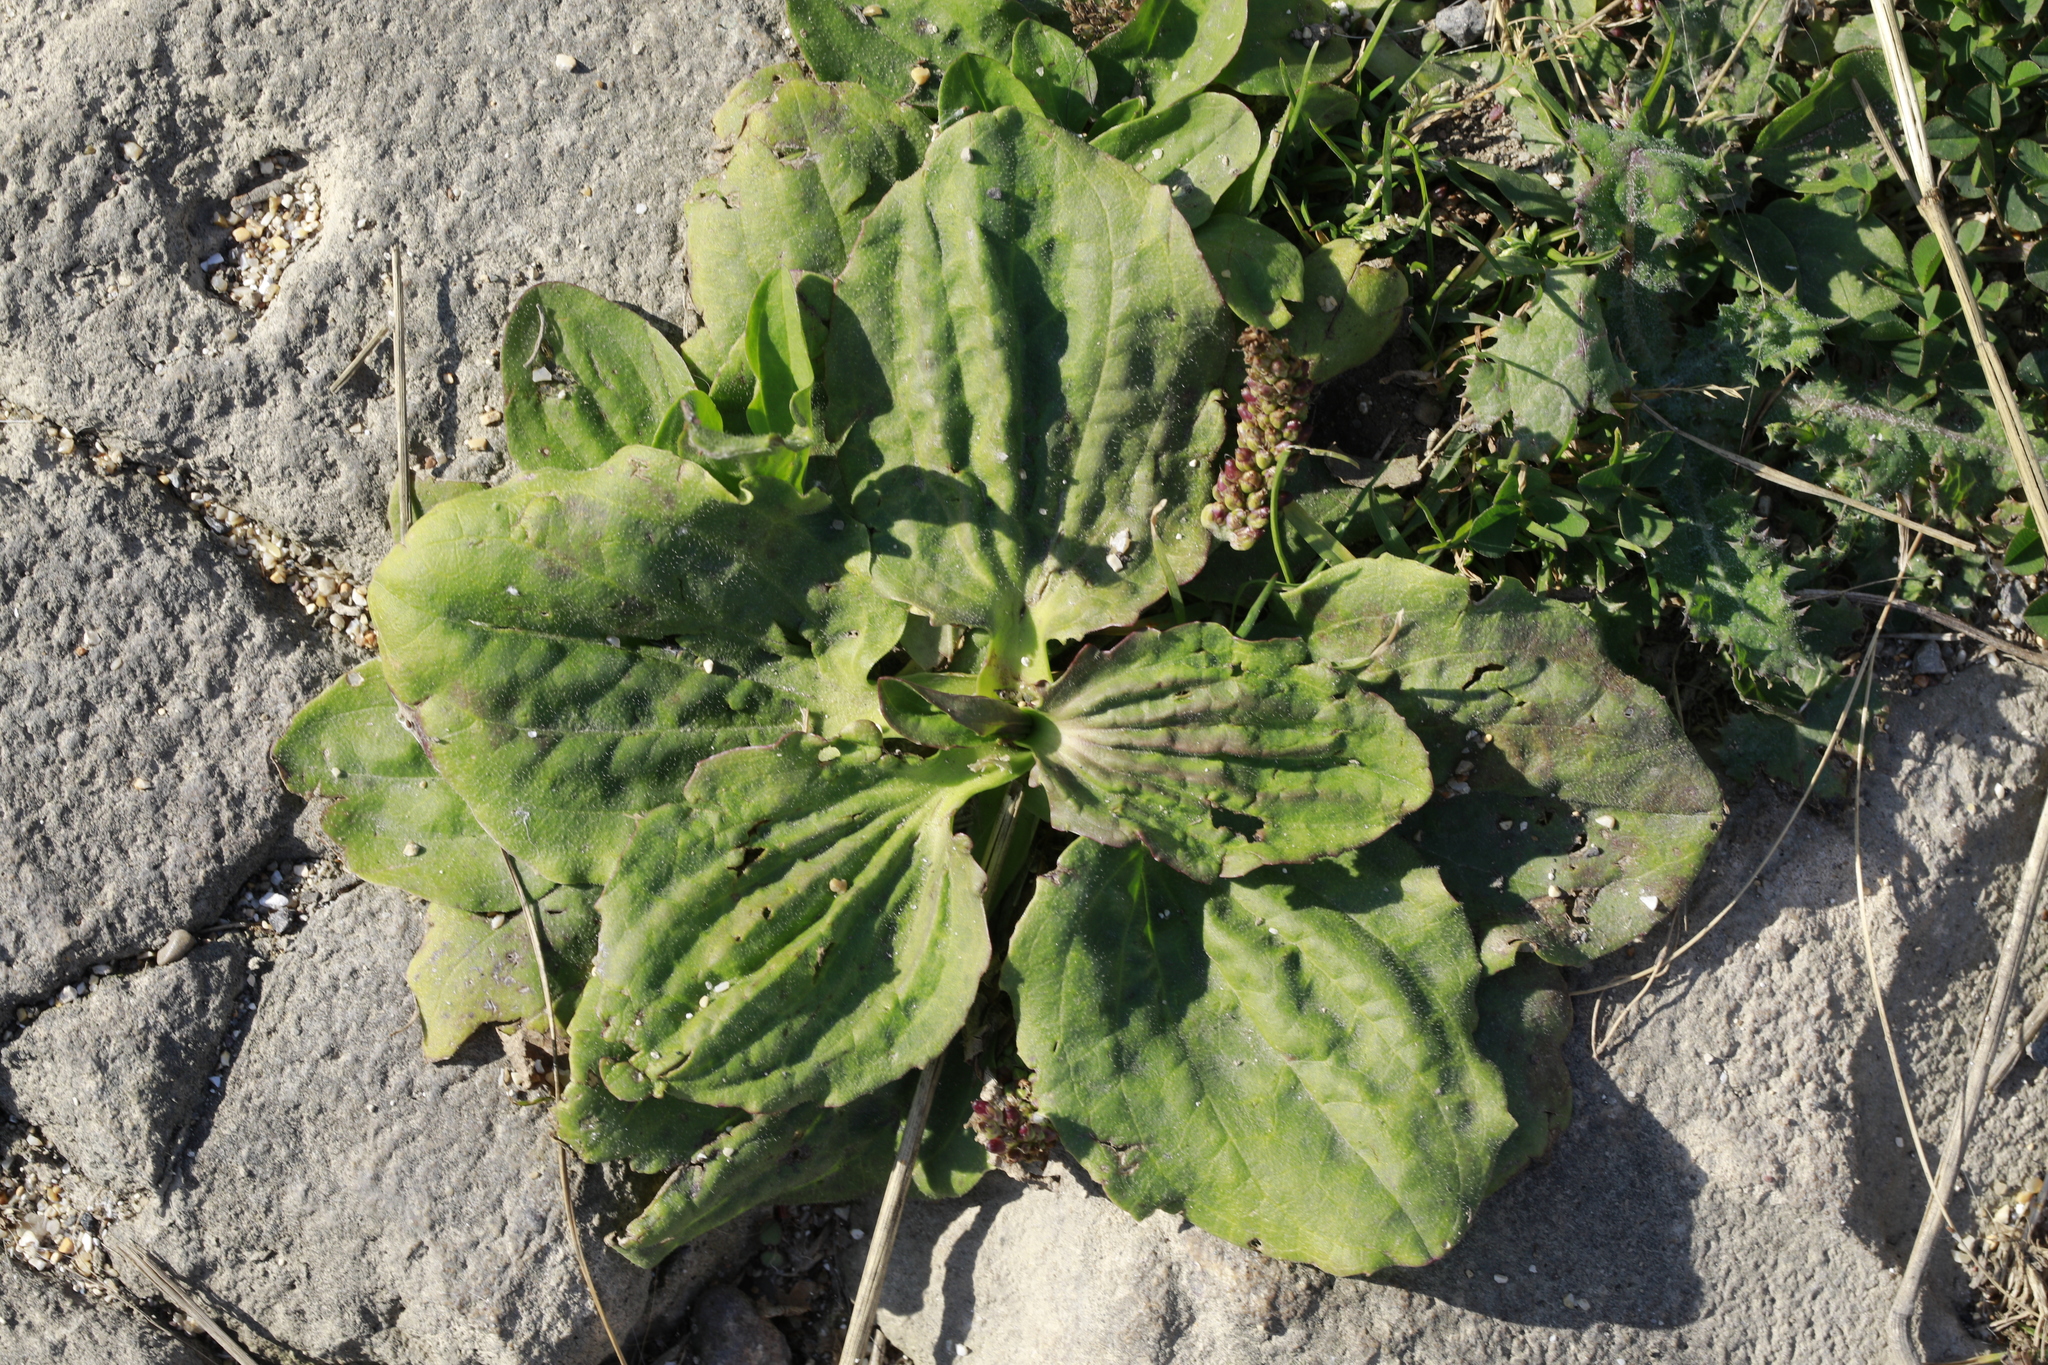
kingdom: Plantae
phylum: Tracheophyta
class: Magnoliopsida
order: Lamiales
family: Plantaginaceae
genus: Plantago
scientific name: Plantago major
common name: Common plantain
